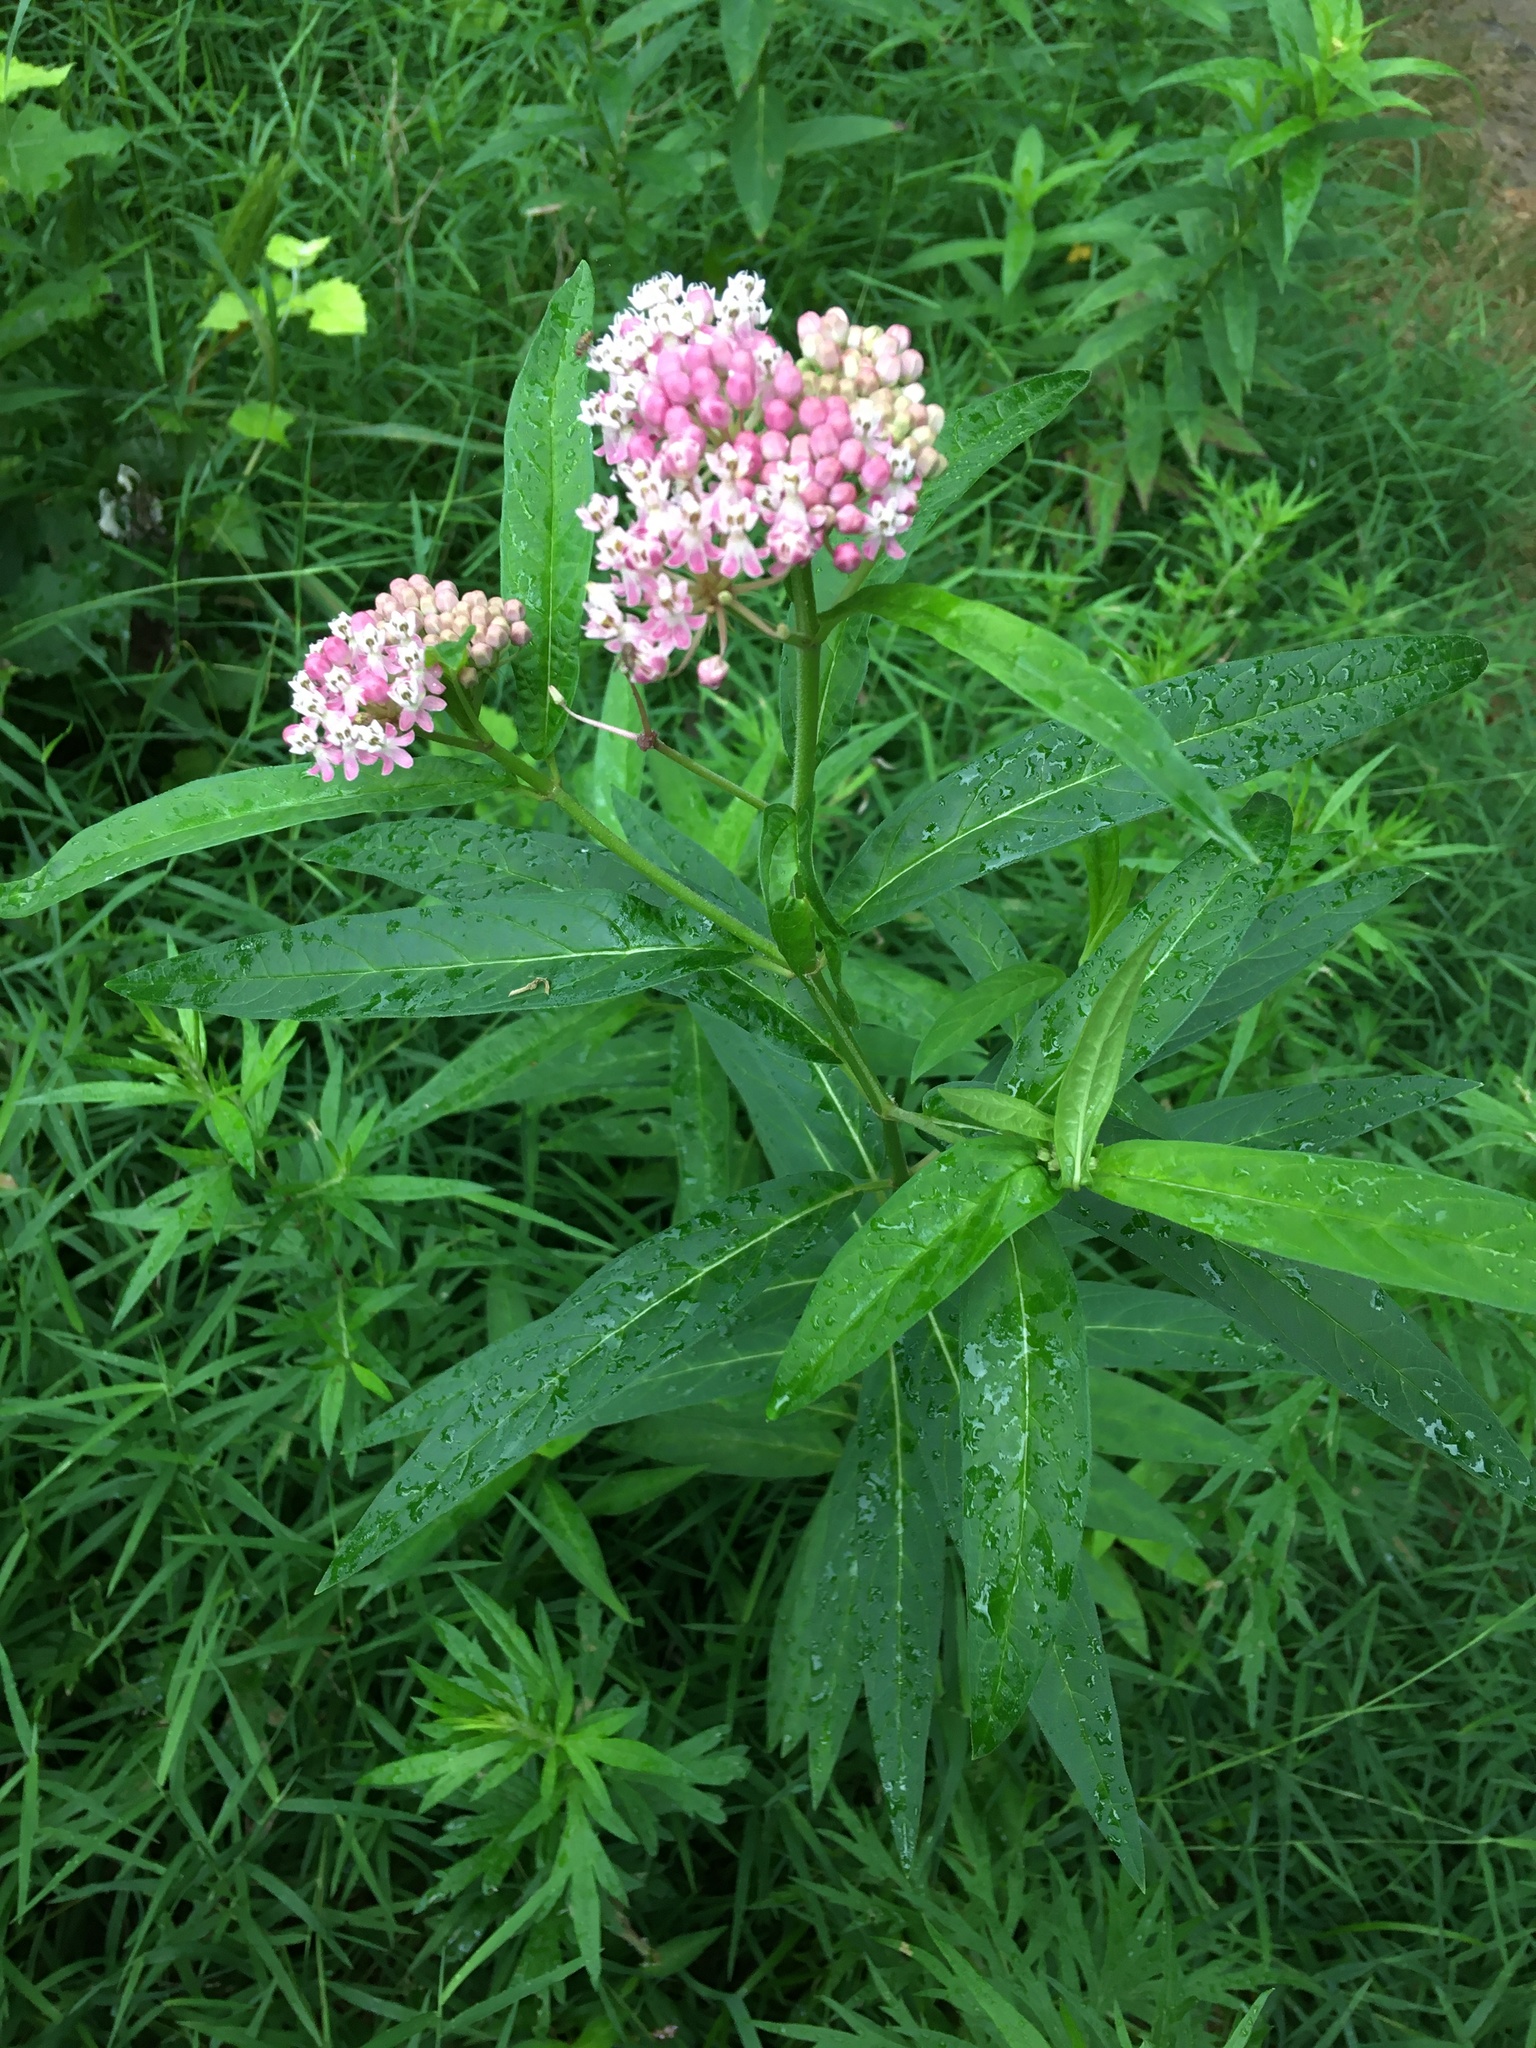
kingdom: Plantae
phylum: Tracheophyta
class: Magnoliopsida
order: Gentianales
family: Apocynaceae
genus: Asclepias
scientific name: Asclepias incarnata
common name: Swamp milkweed
